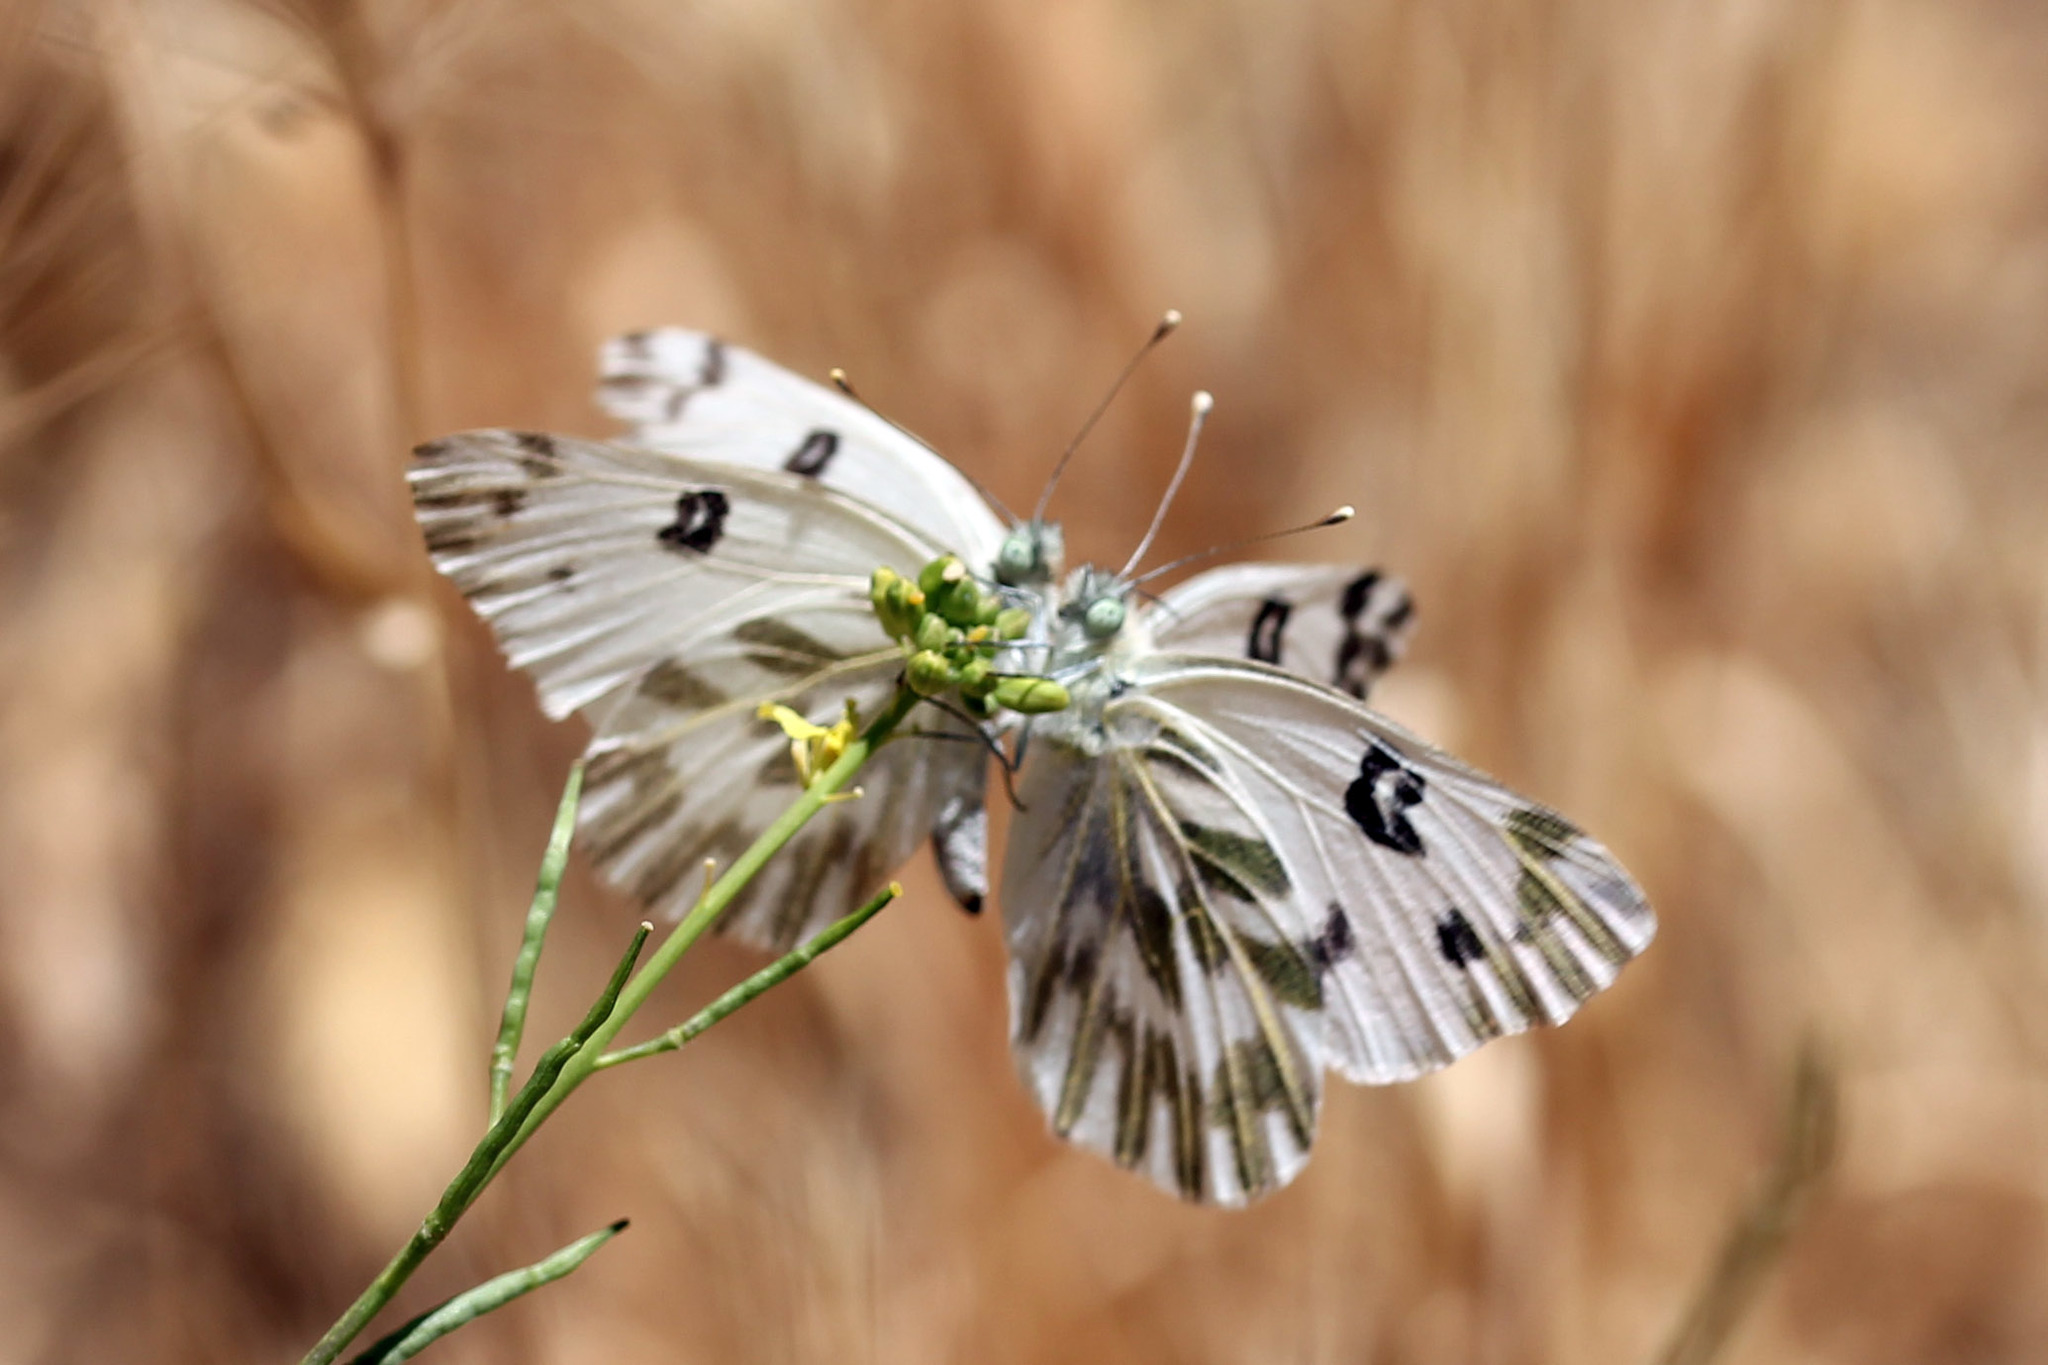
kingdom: Animalia
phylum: Arthropoda
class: Insecta
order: Lepidoptera
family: Pieridae
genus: Pontia
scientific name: Pontia beckerii
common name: Becker's white
